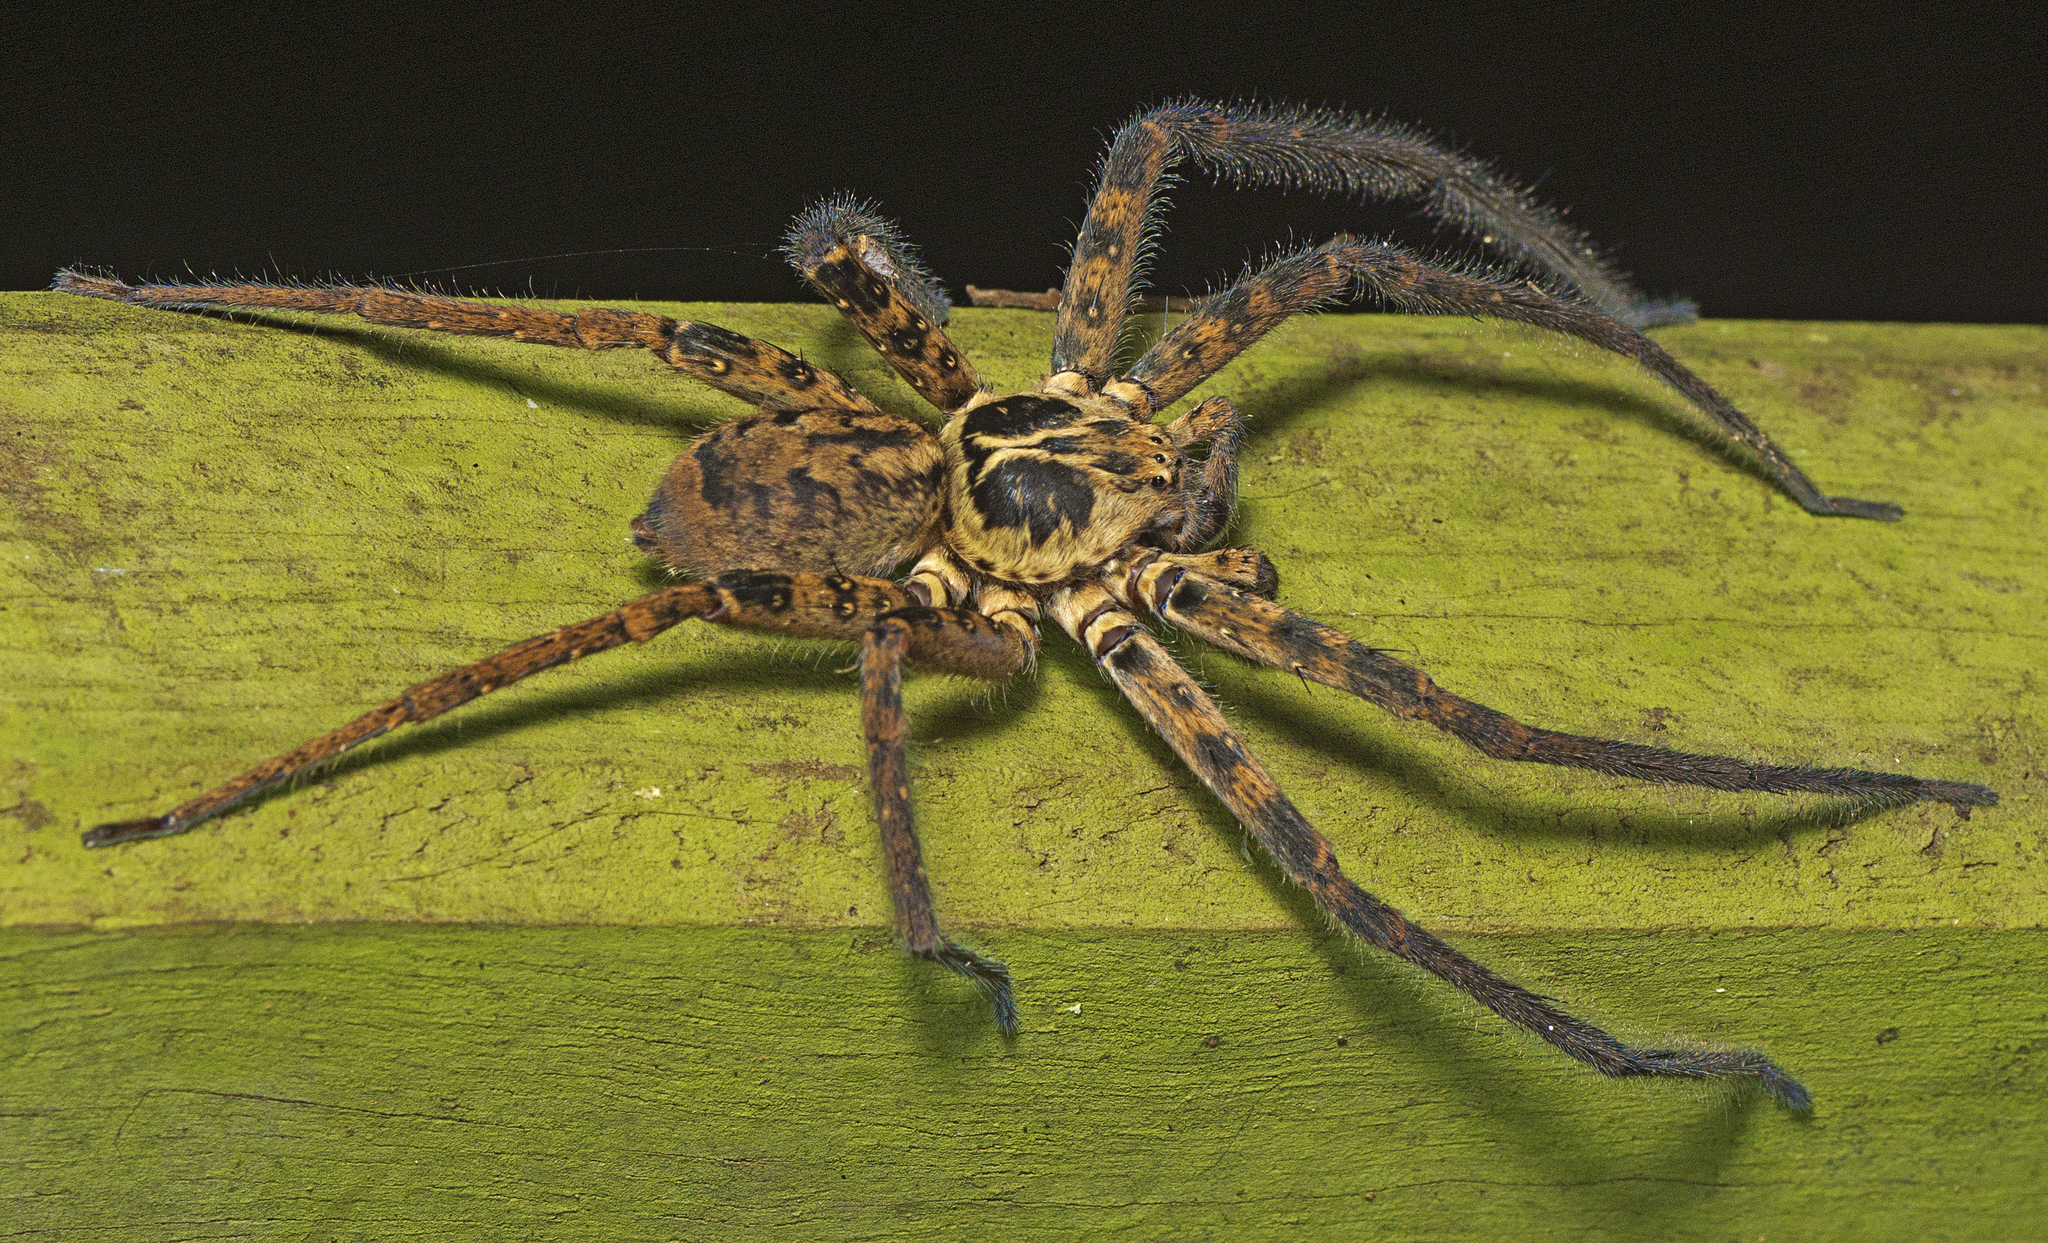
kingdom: Animalia
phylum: Arthropoda
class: Arachnida
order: Araneae
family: Sparassidae
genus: Heteropoda
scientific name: Heteropoda hillerae
